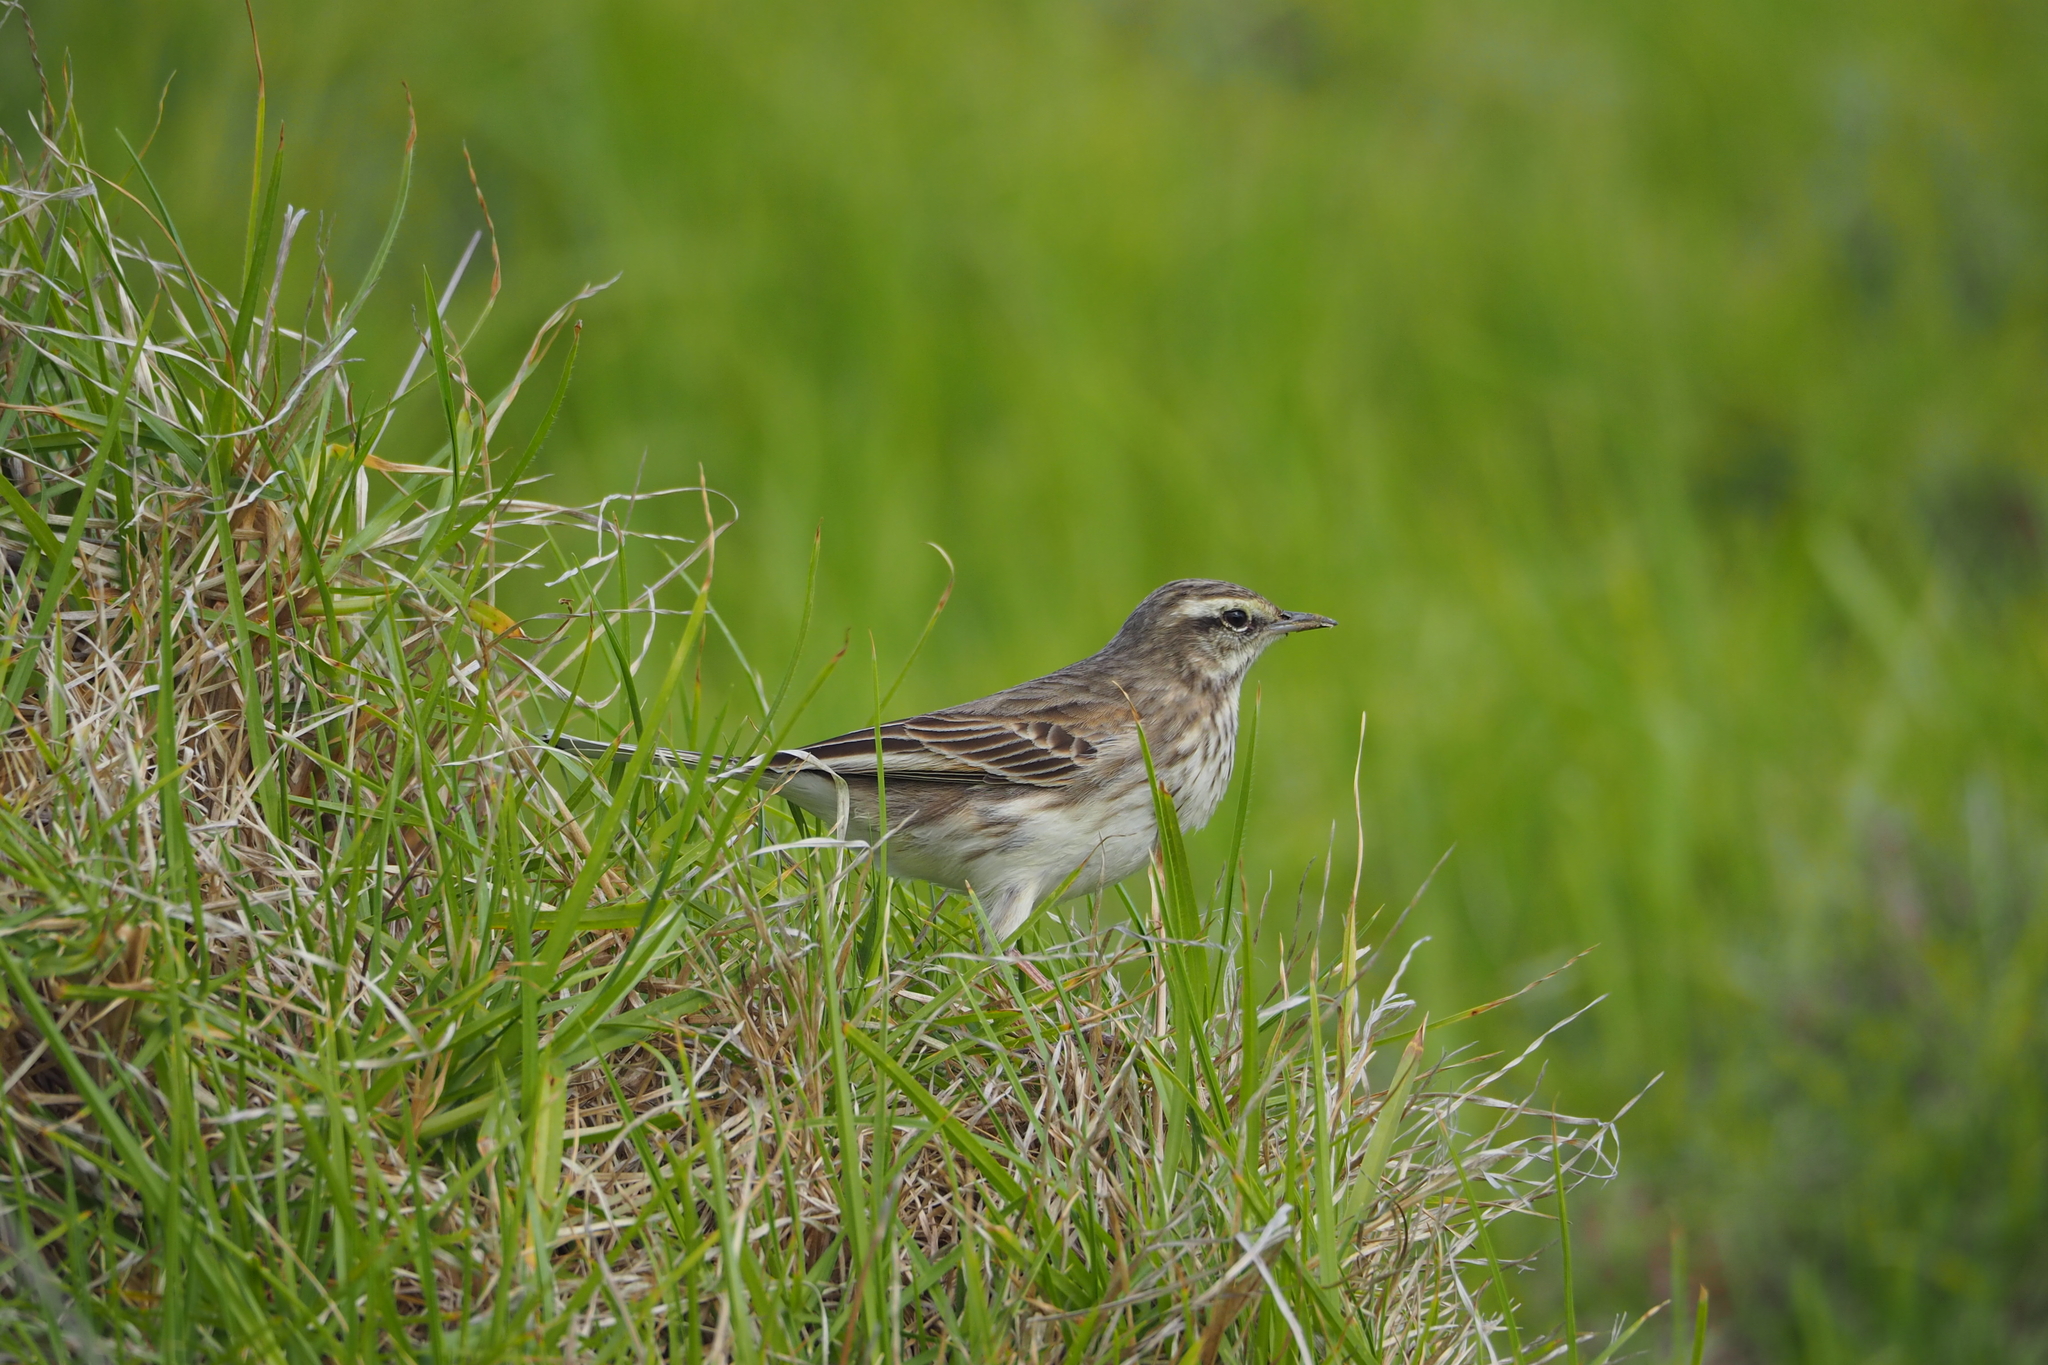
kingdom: Animalia
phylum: Chordata
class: Aves
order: Passeriformes
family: Motacillidae
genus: Anthus
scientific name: Anthus novaeseelandiae
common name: New zealand pipit
